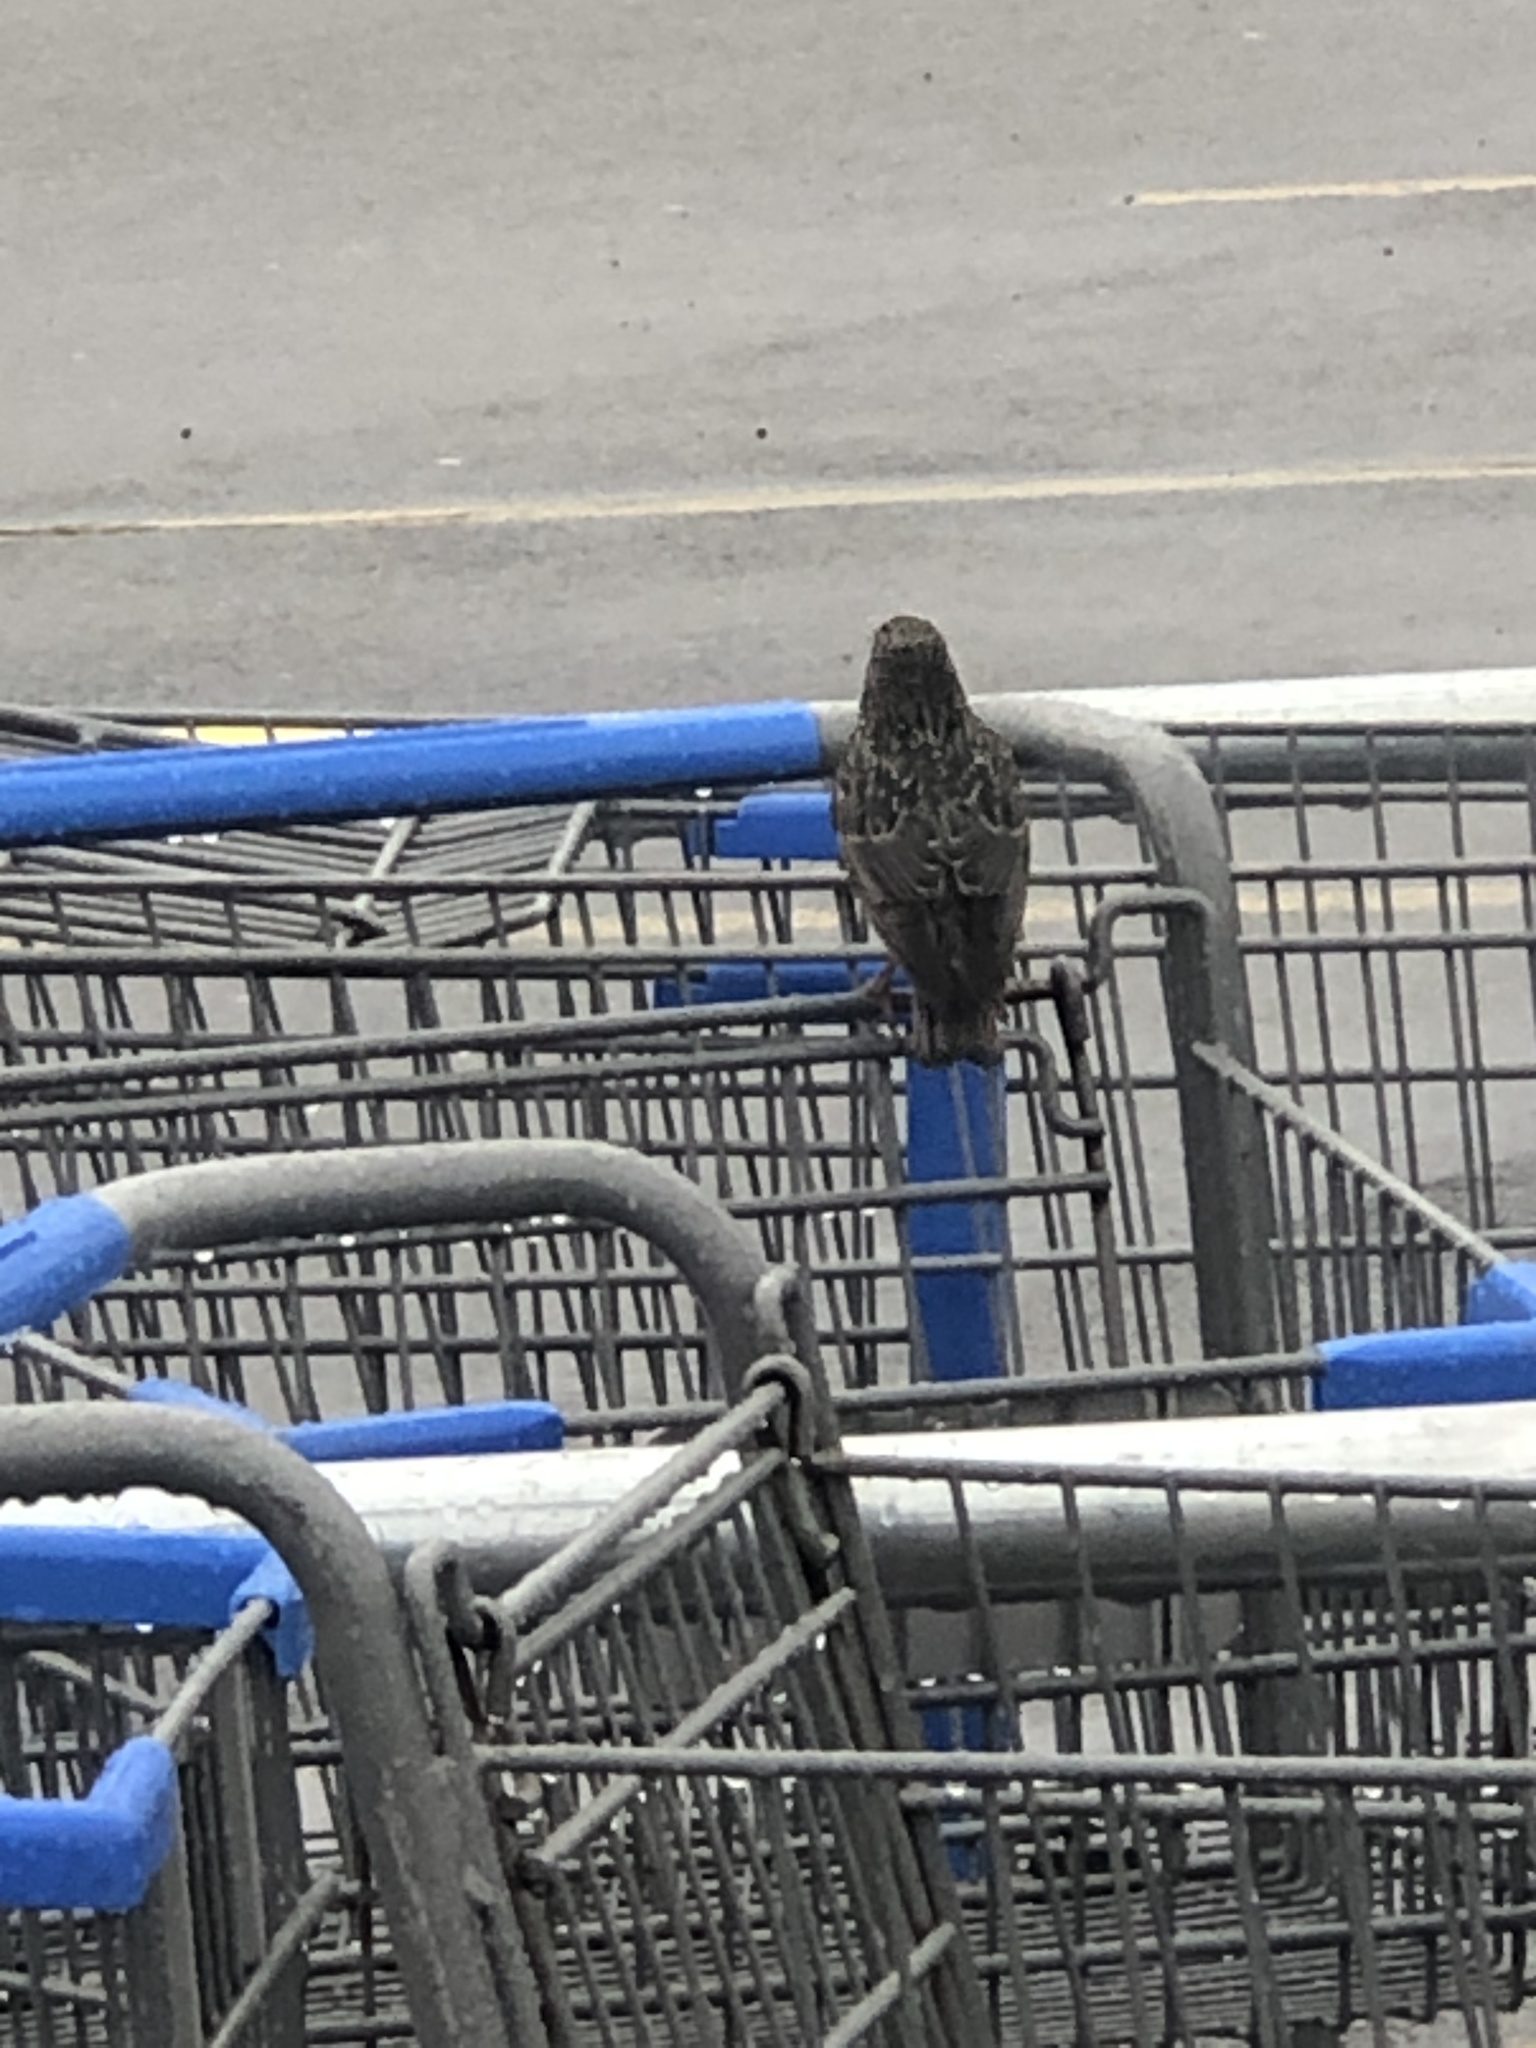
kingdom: Animalia
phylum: Chordata
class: Aves
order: Passeriformes
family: Sturnidae
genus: Sturnus
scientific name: Sturnus vulgaris
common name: Common starling
